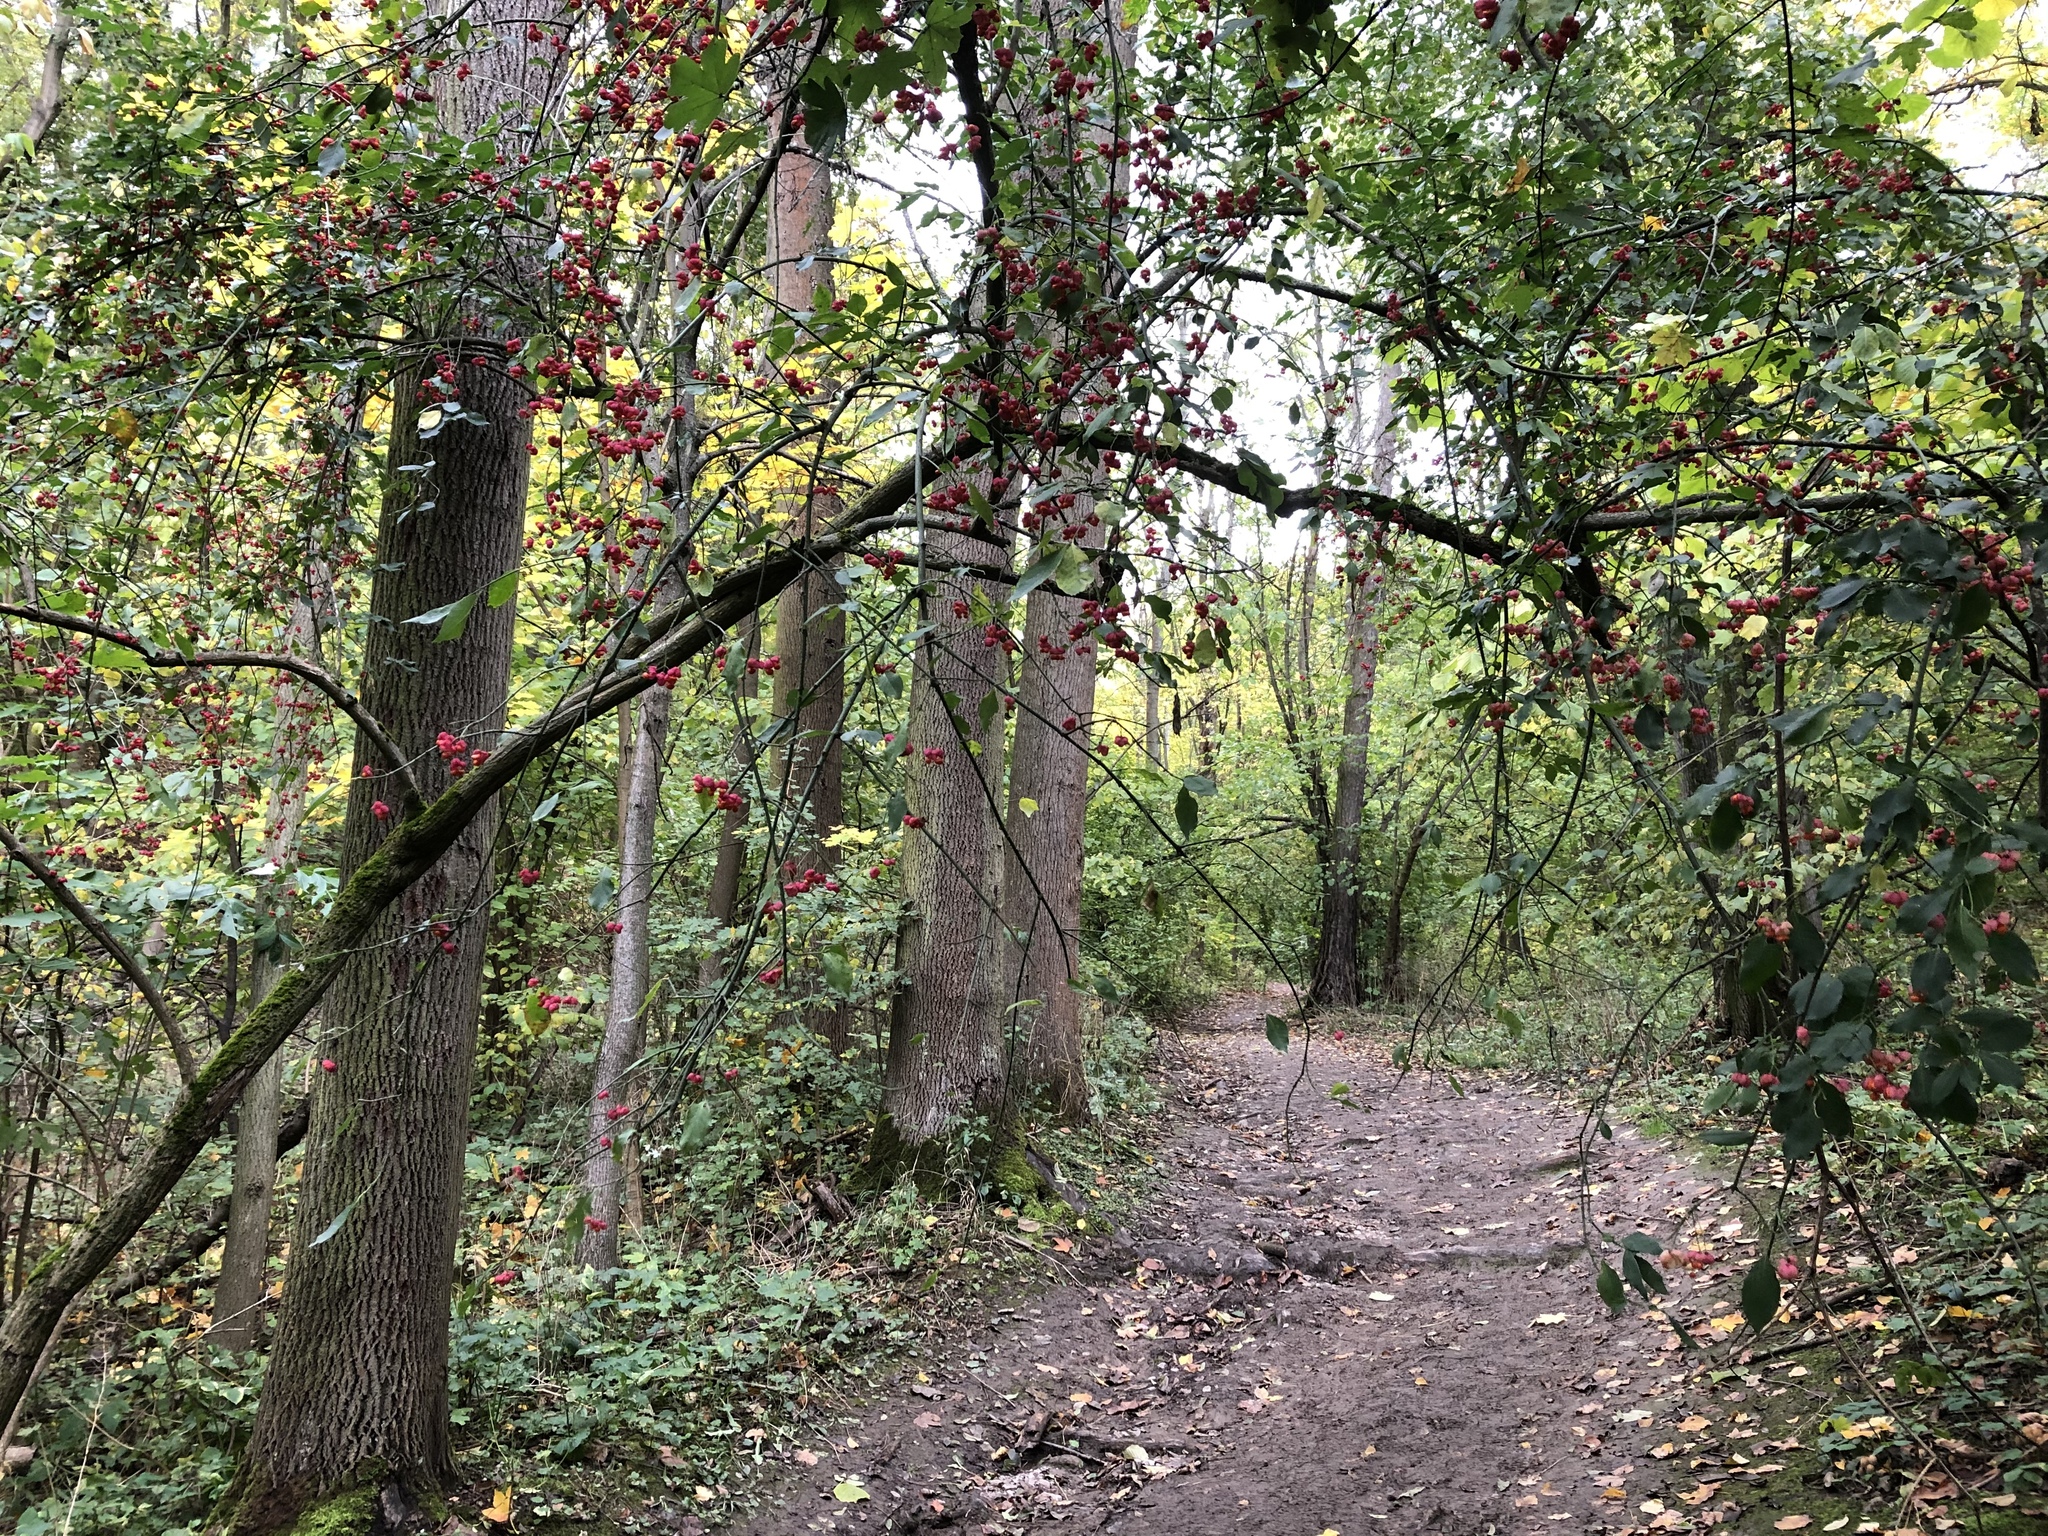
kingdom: Plantae
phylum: Tracheophyta
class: Magnoliopsida
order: Celastrales
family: Celastraceae
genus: Euonymus
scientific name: Euonymus europaeus
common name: Spindle
